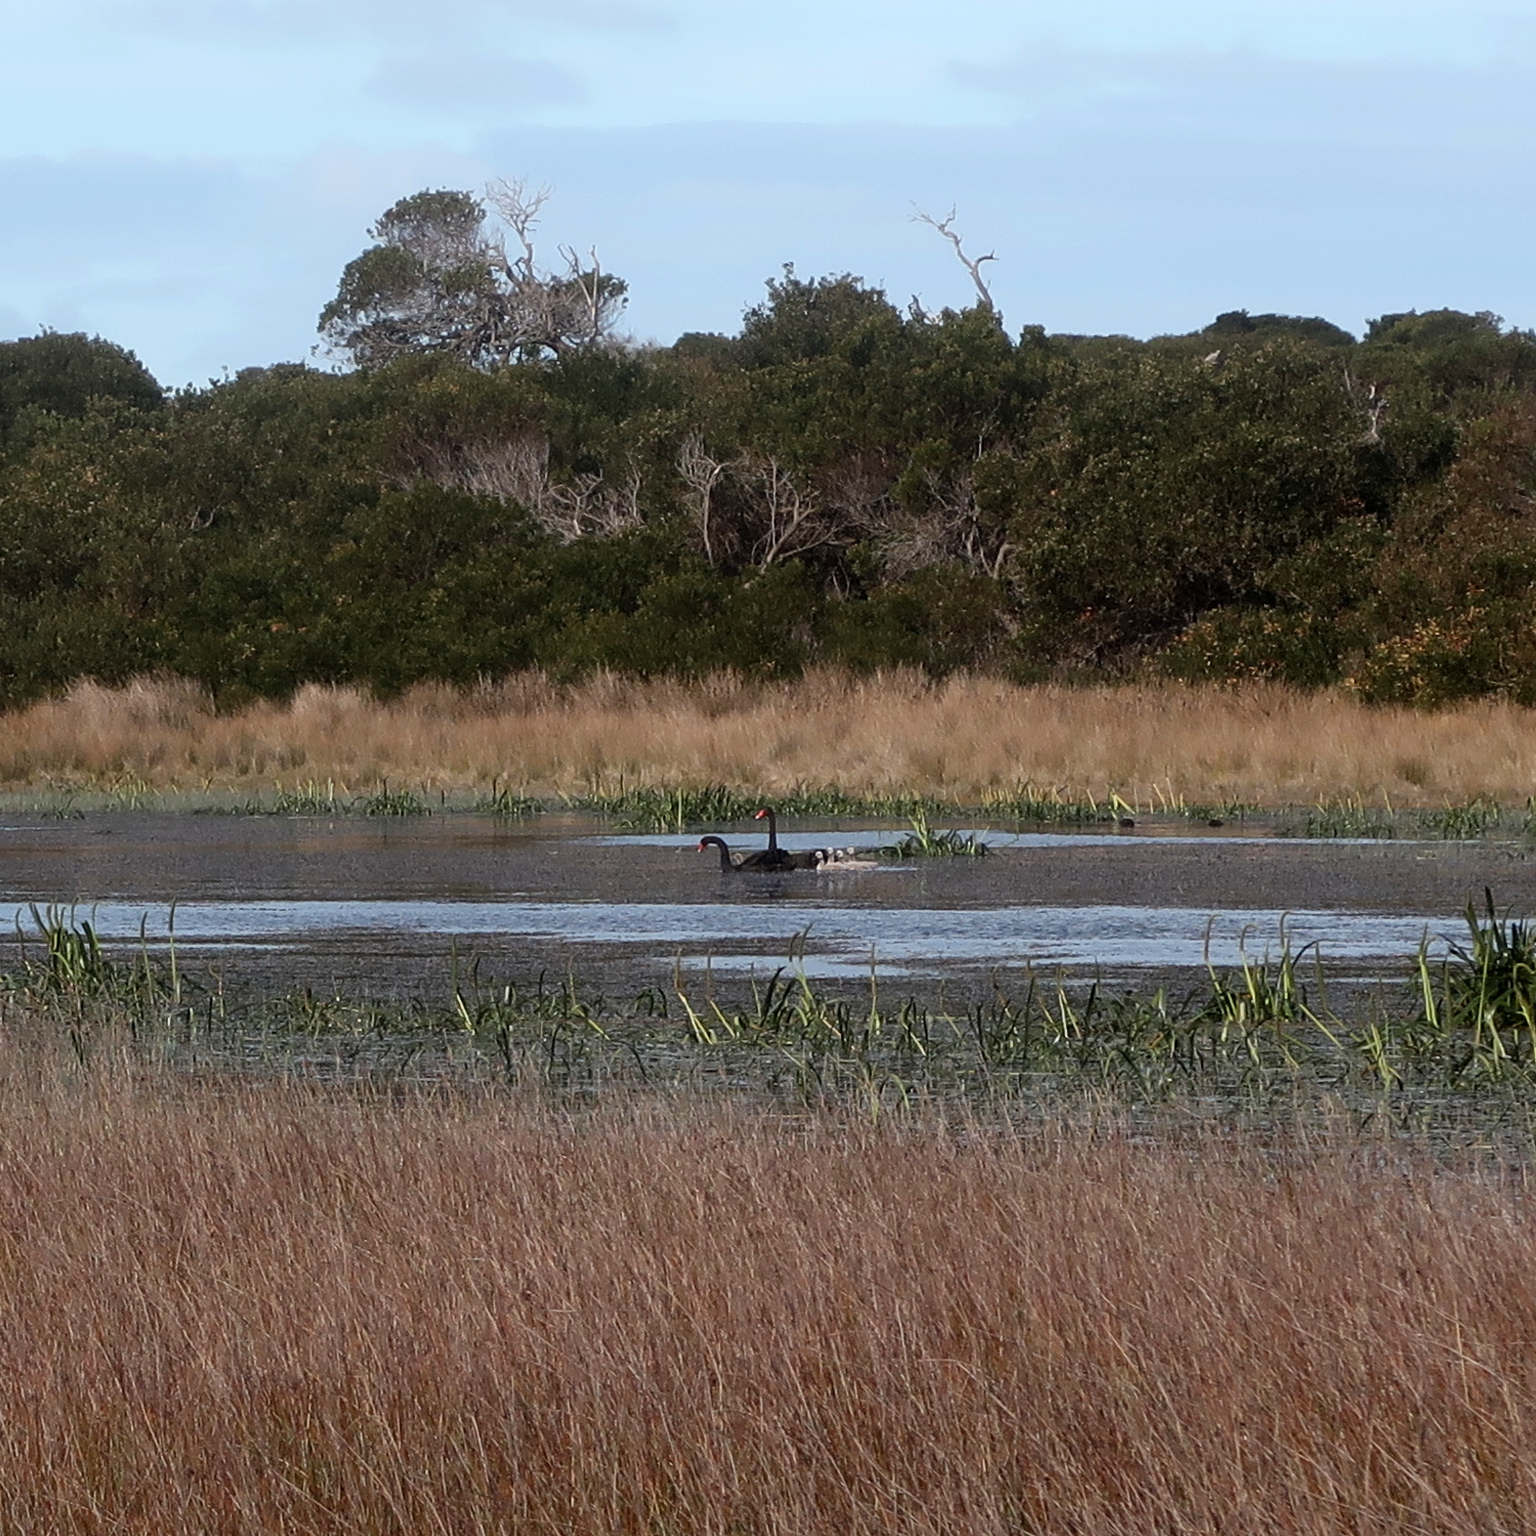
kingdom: Animalia
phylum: Chordata
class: Aves
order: Anseriformes
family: Anatidae
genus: Cygnus
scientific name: Cygnus atratus
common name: Black swan
